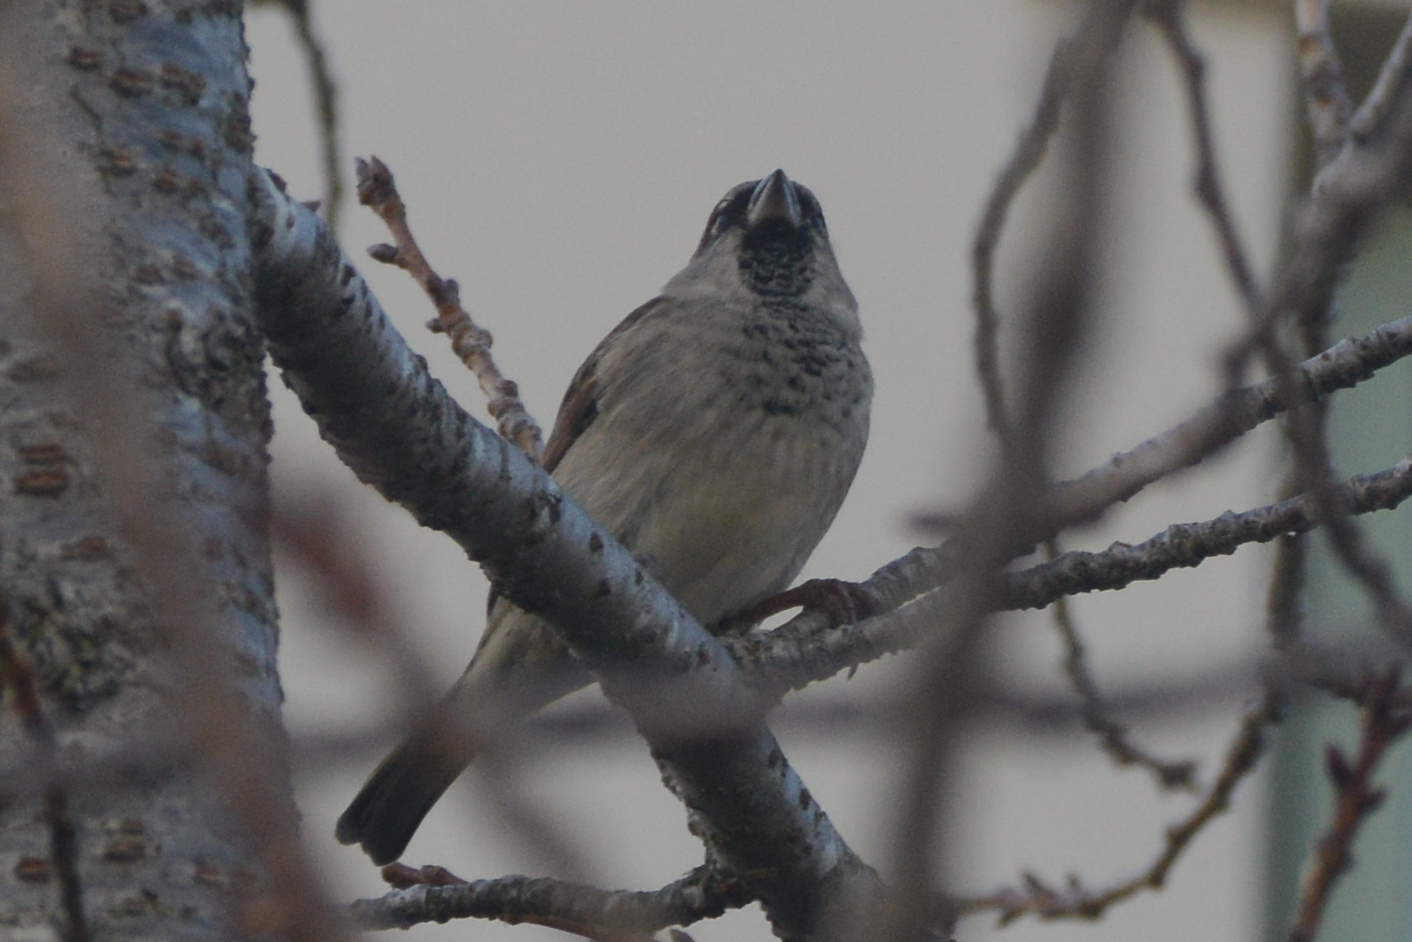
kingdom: Animalia
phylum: Chordata
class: Aves
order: Passeriformes
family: Passeridae
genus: Passer
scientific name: Passer domesticus
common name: House sparrow
